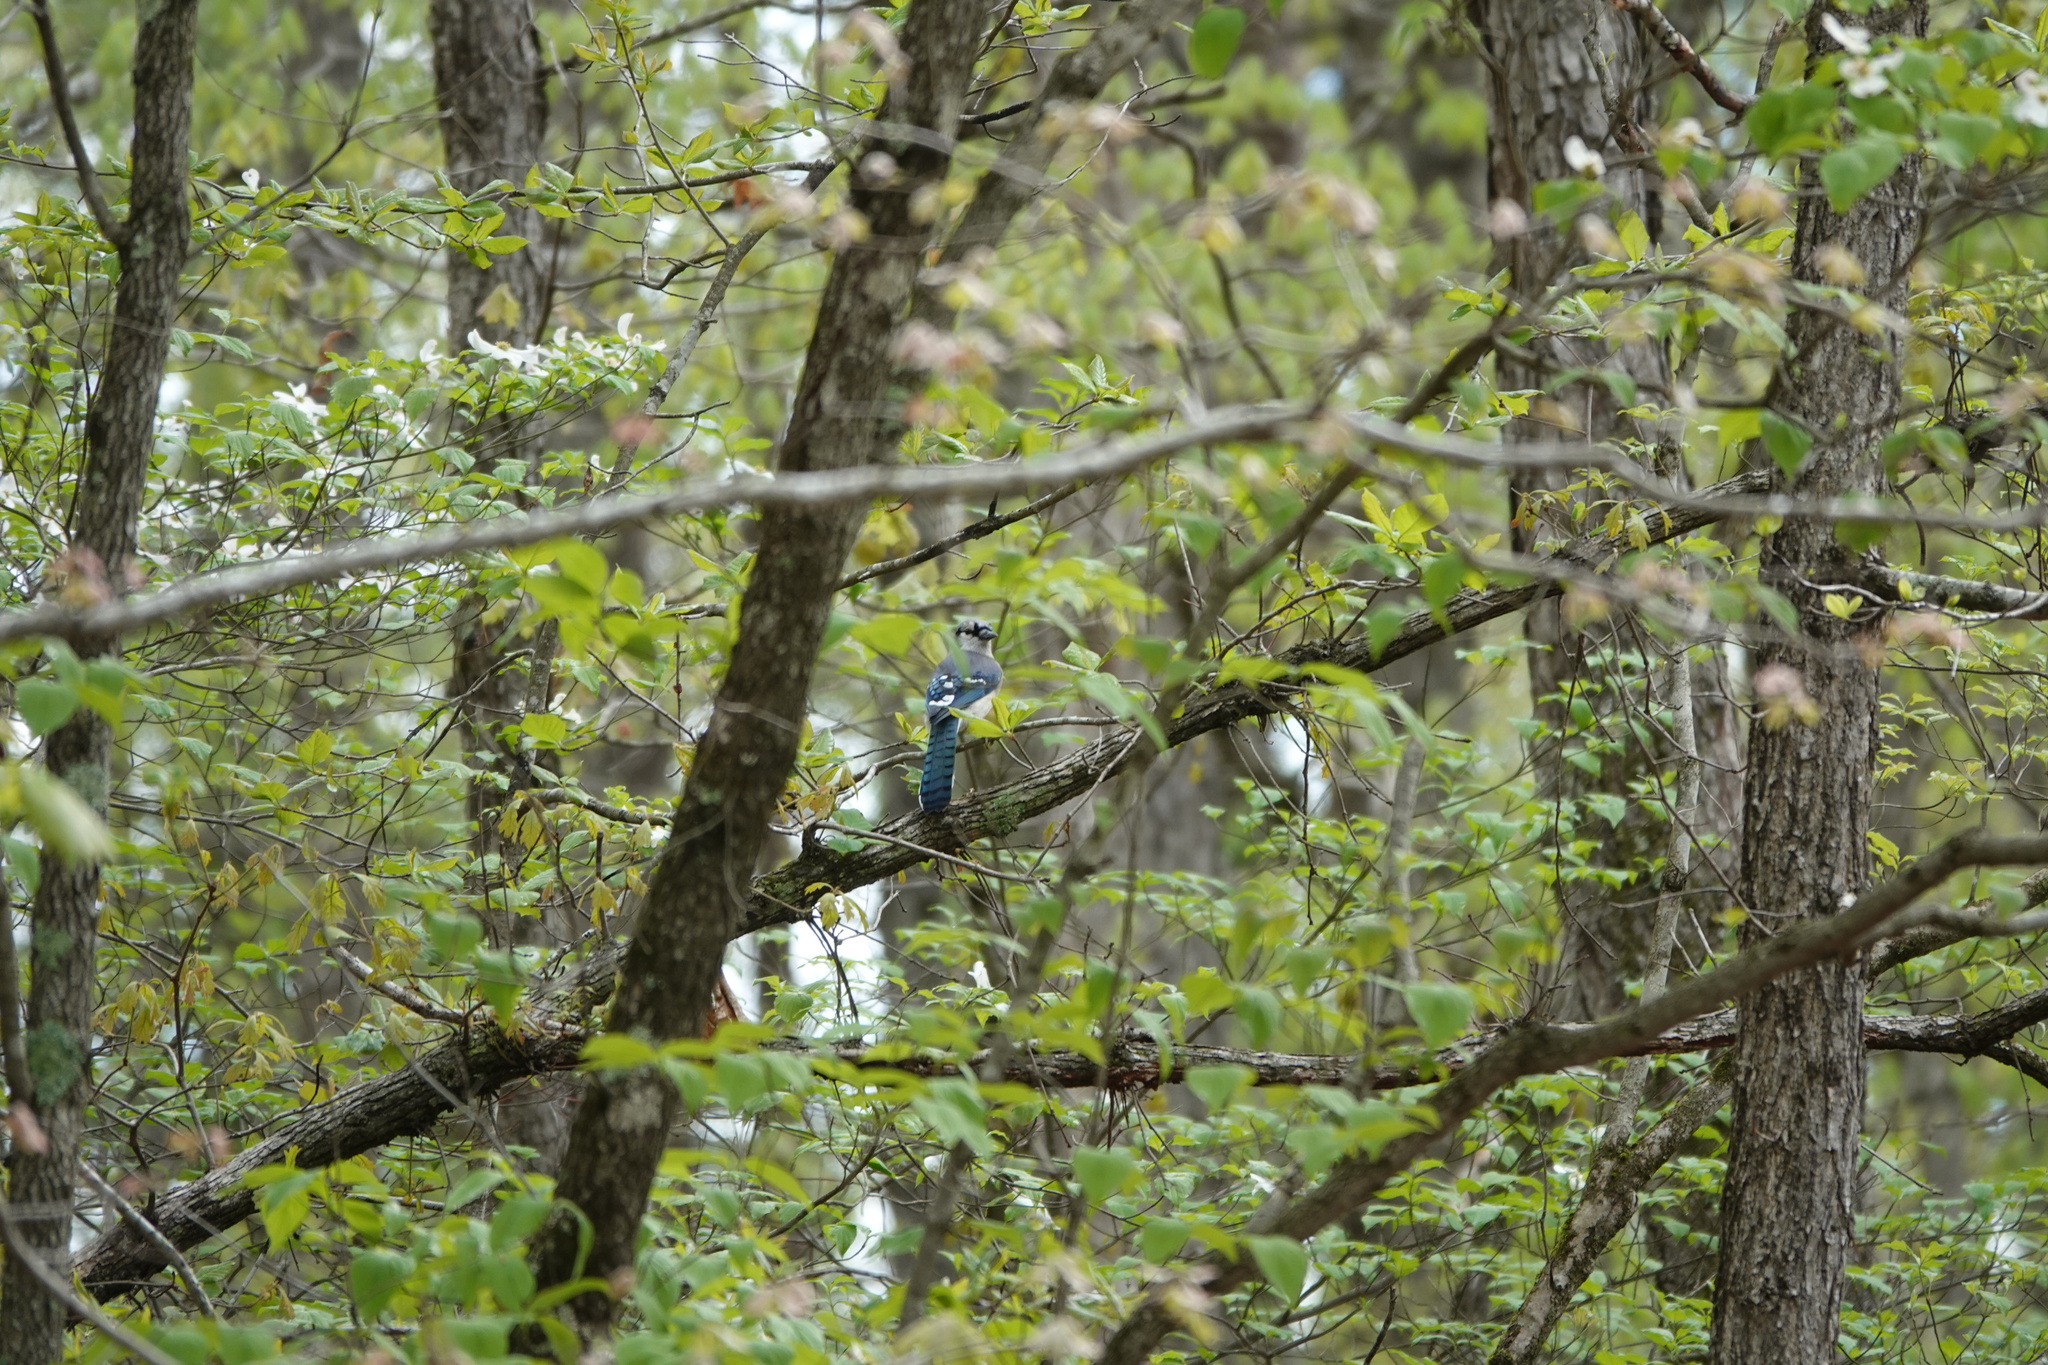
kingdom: Animalia
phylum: Chordata
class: Aves
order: Passeriformes
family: Corvidae
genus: Cyanocitta
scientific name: Cyanocitta cristata
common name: Blue jay
